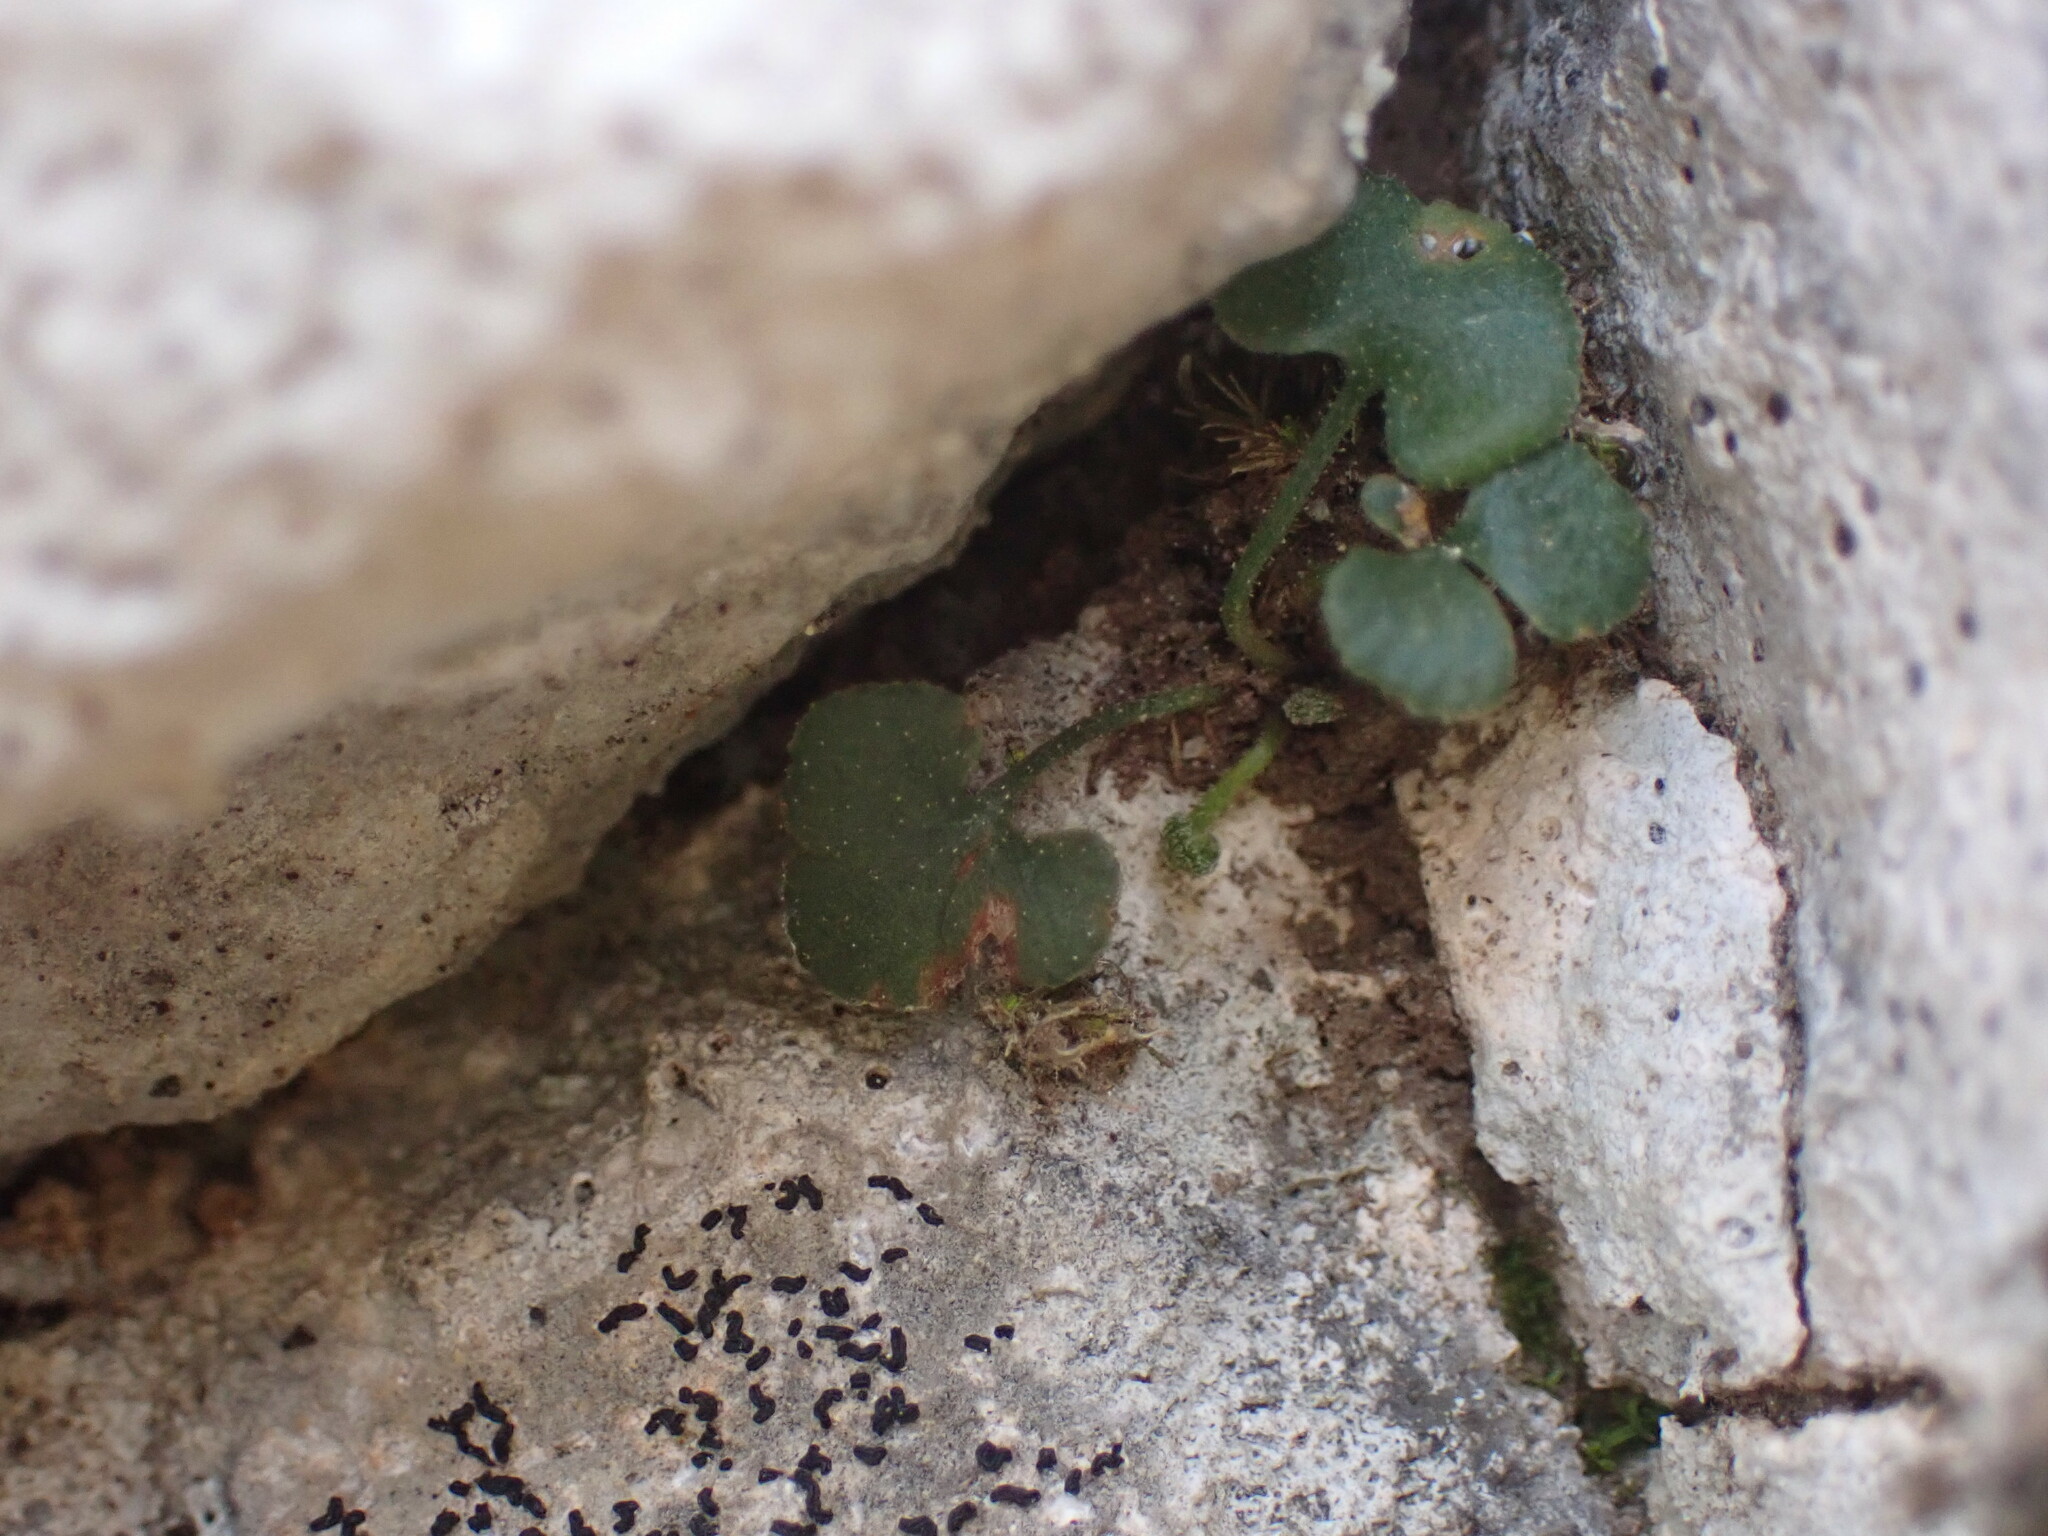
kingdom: Plantae
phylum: Tracheophyta
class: Polypodiopsida
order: Polypodiales
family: Aspleniaceae
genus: Asplenium
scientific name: Asplenium ruta-muraria
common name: Wall-rue
